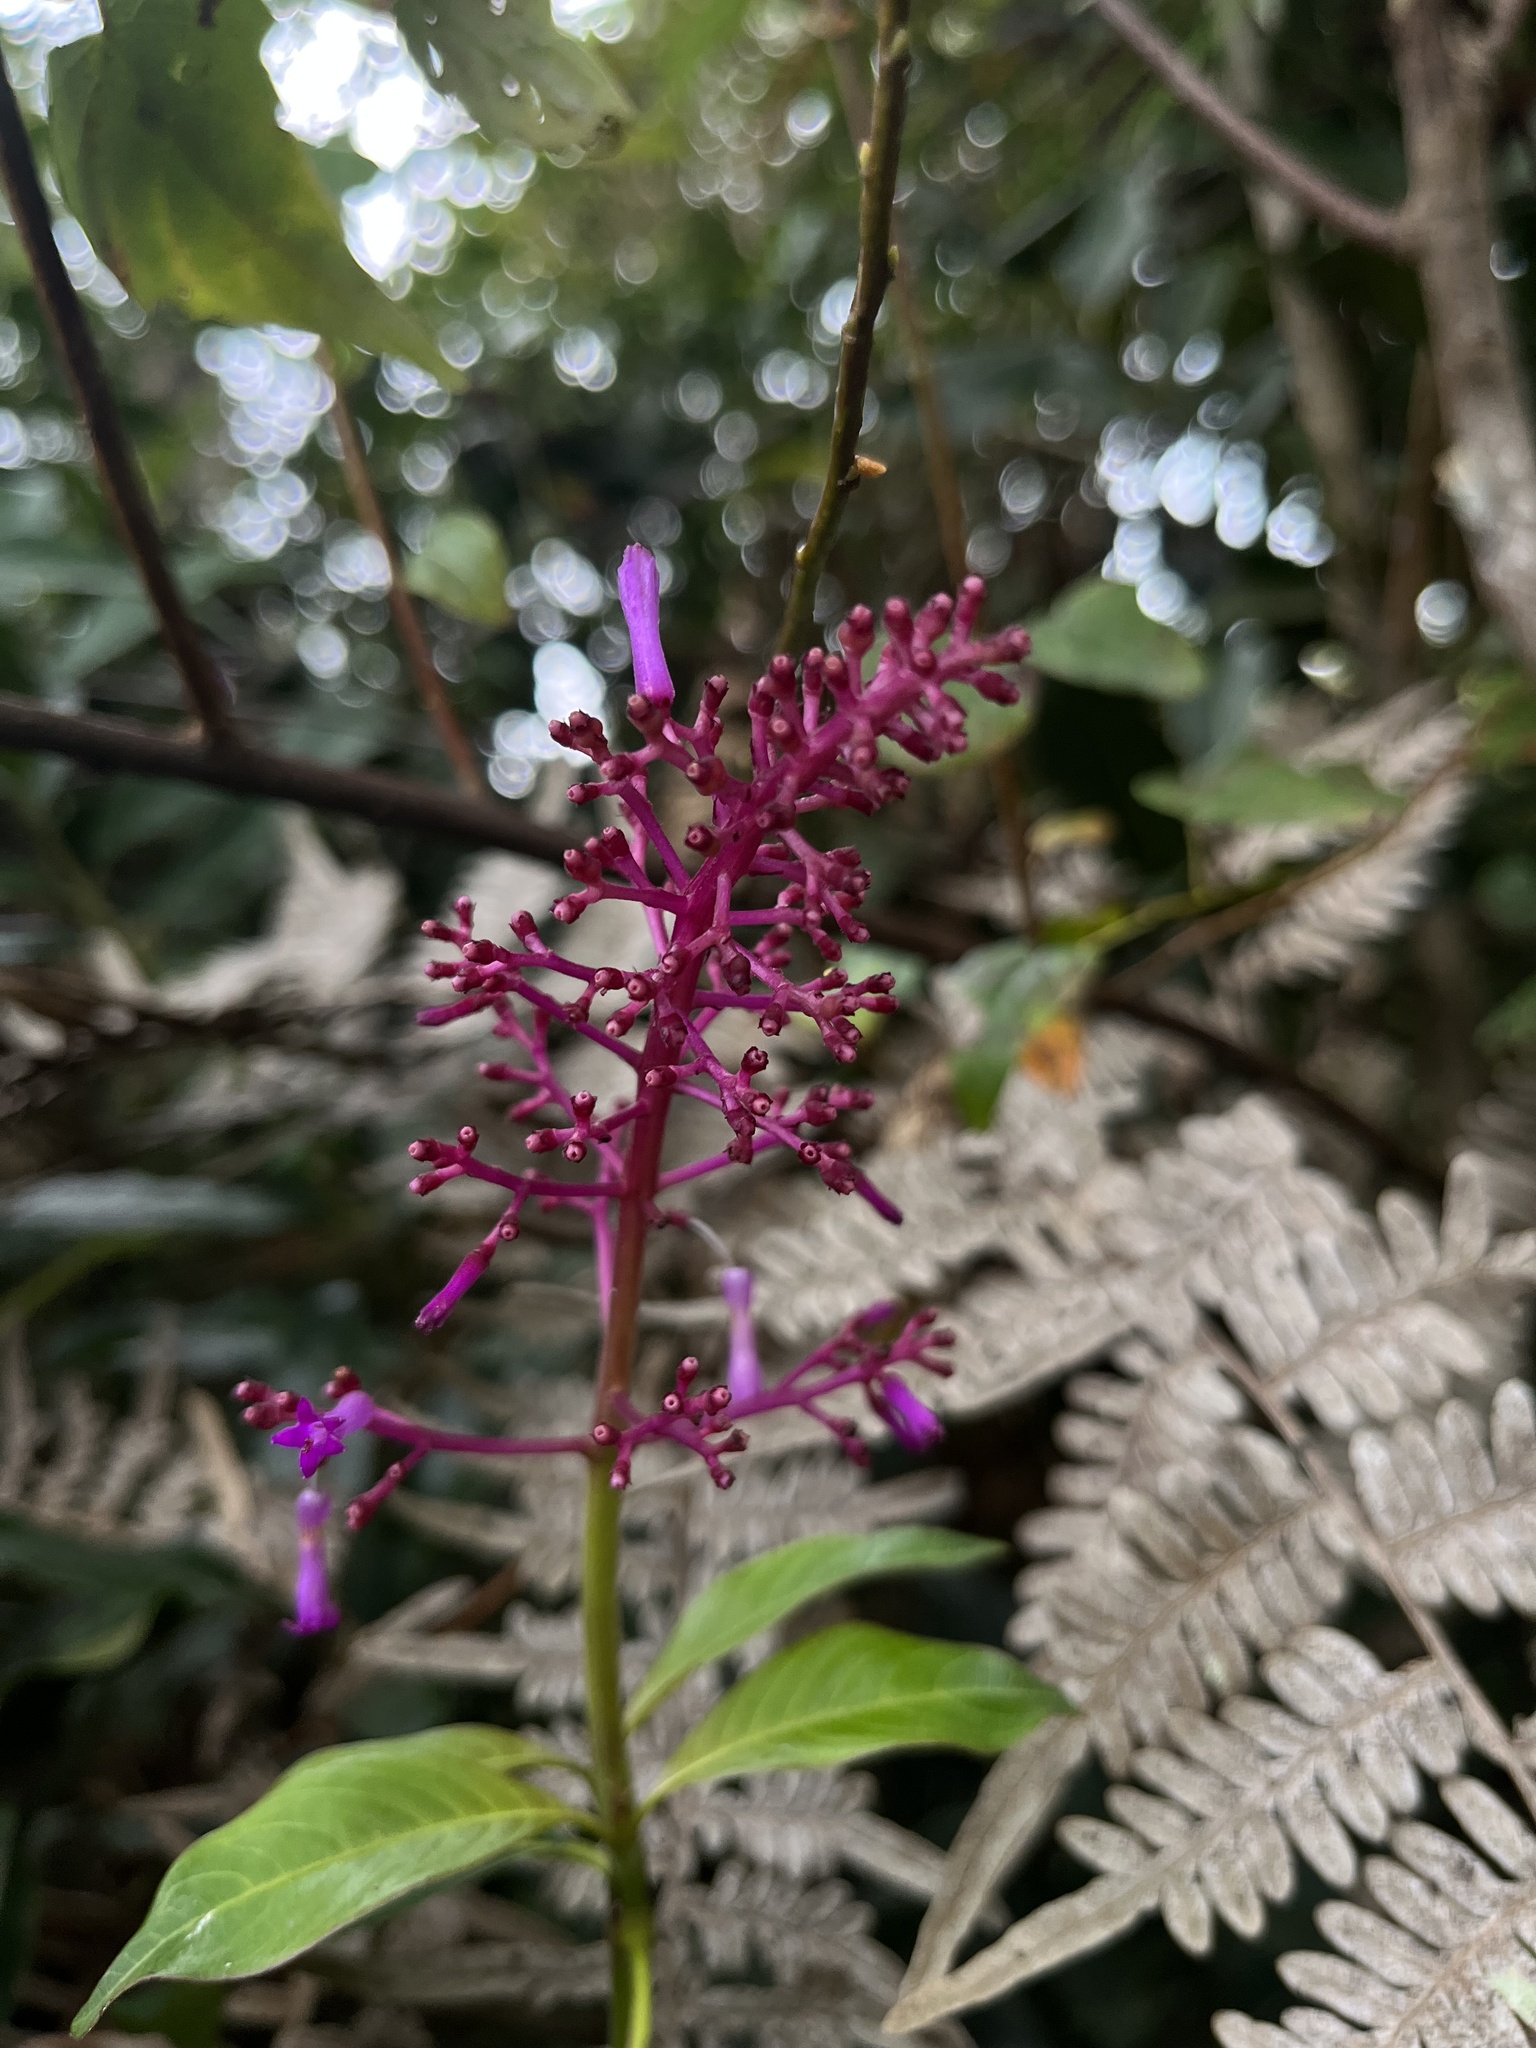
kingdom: Plantae
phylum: Tracheophyta
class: Magnoliopsida
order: Gentianales
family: Rubiaceae
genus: Palicourea
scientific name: Palicourea angustifolia
